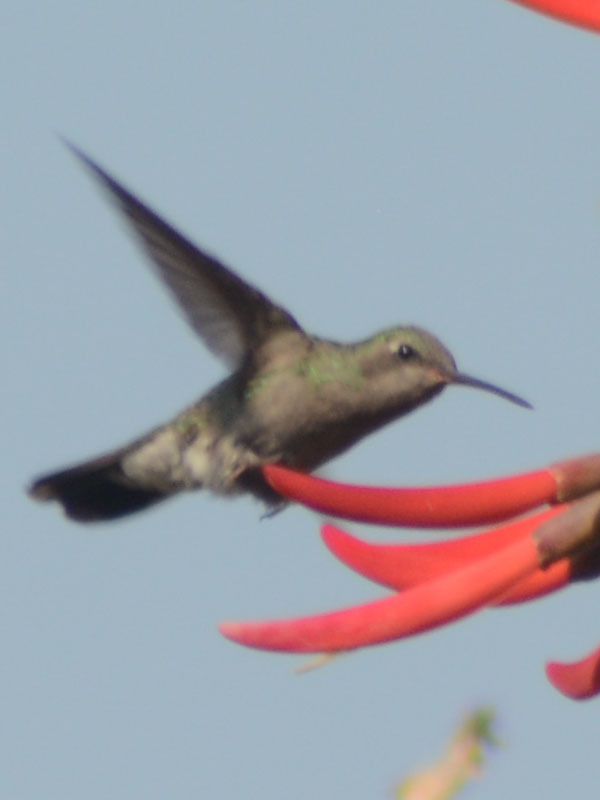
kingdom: Animalia
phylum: Chordata
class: Aves
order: Apodiformes
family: Trochilidae
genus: Cynanthus
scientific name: Cynanthus latirostris
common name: Broad-billed hummingbird
